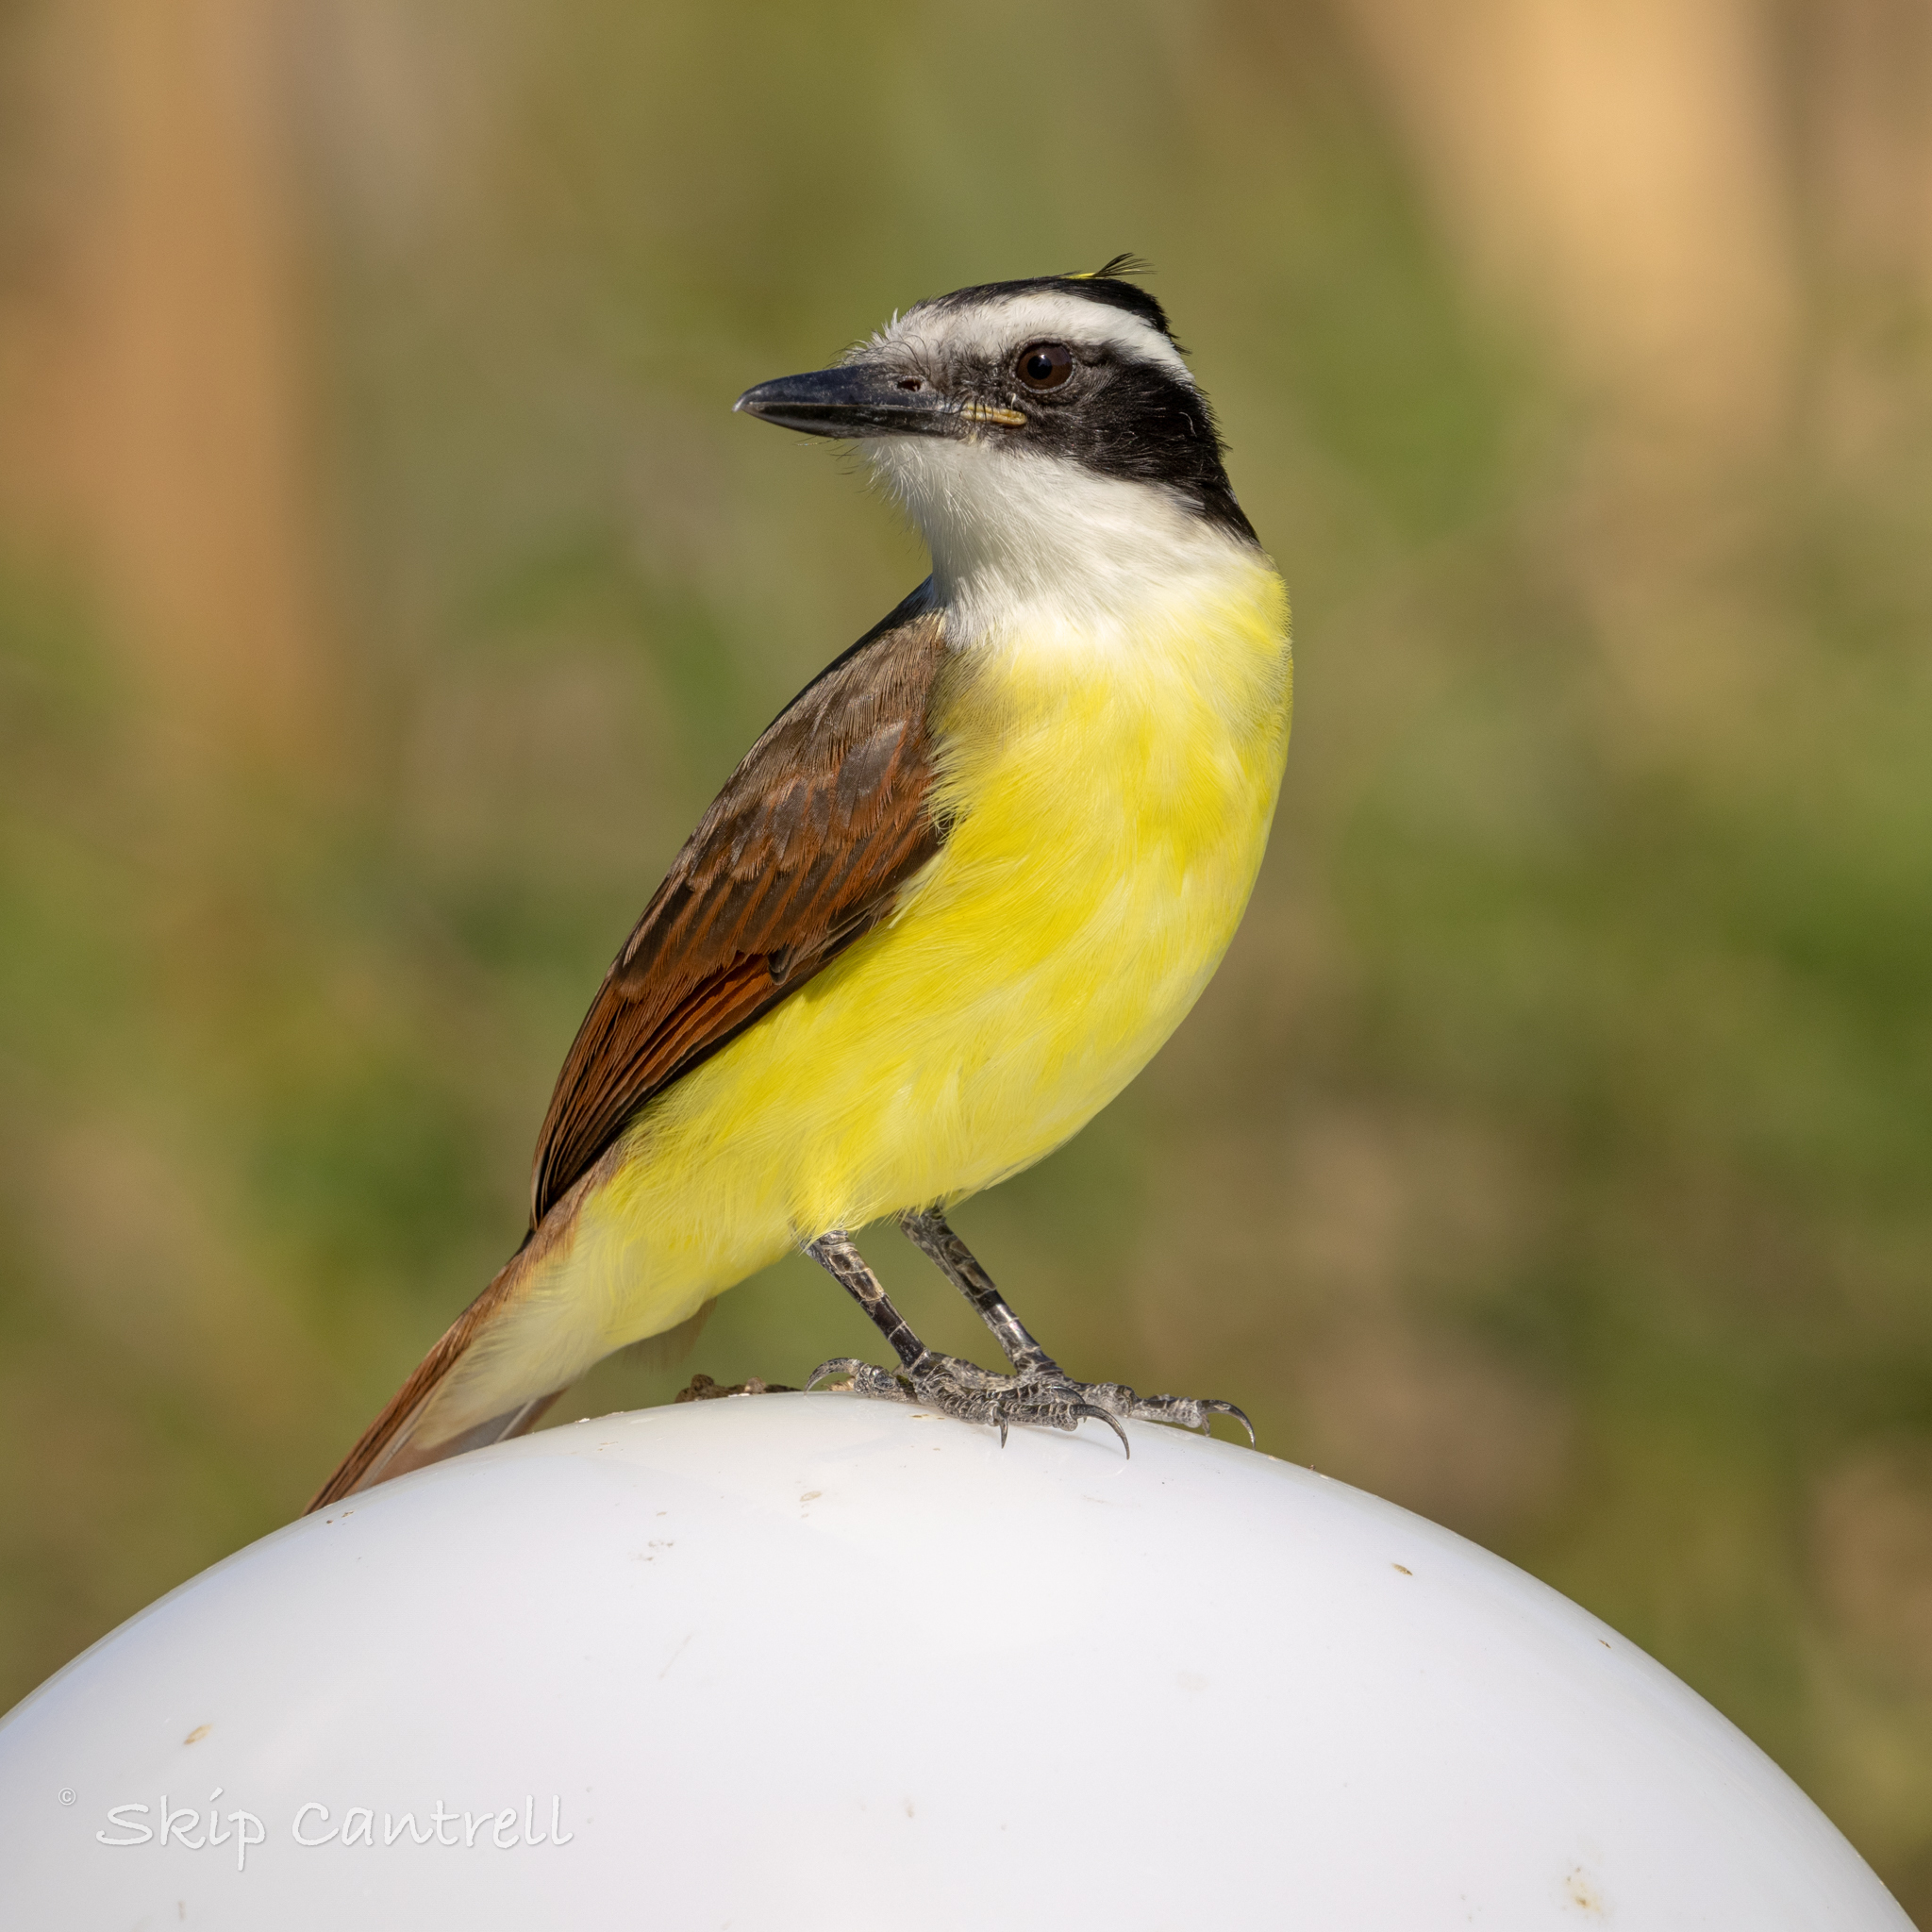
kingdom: Animalia
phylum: Chordata
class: Aves
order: Passeriformes
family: Tyrannidae
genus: Pitangus
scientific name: Pitangus sulphuratus
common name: Great kiskadee
